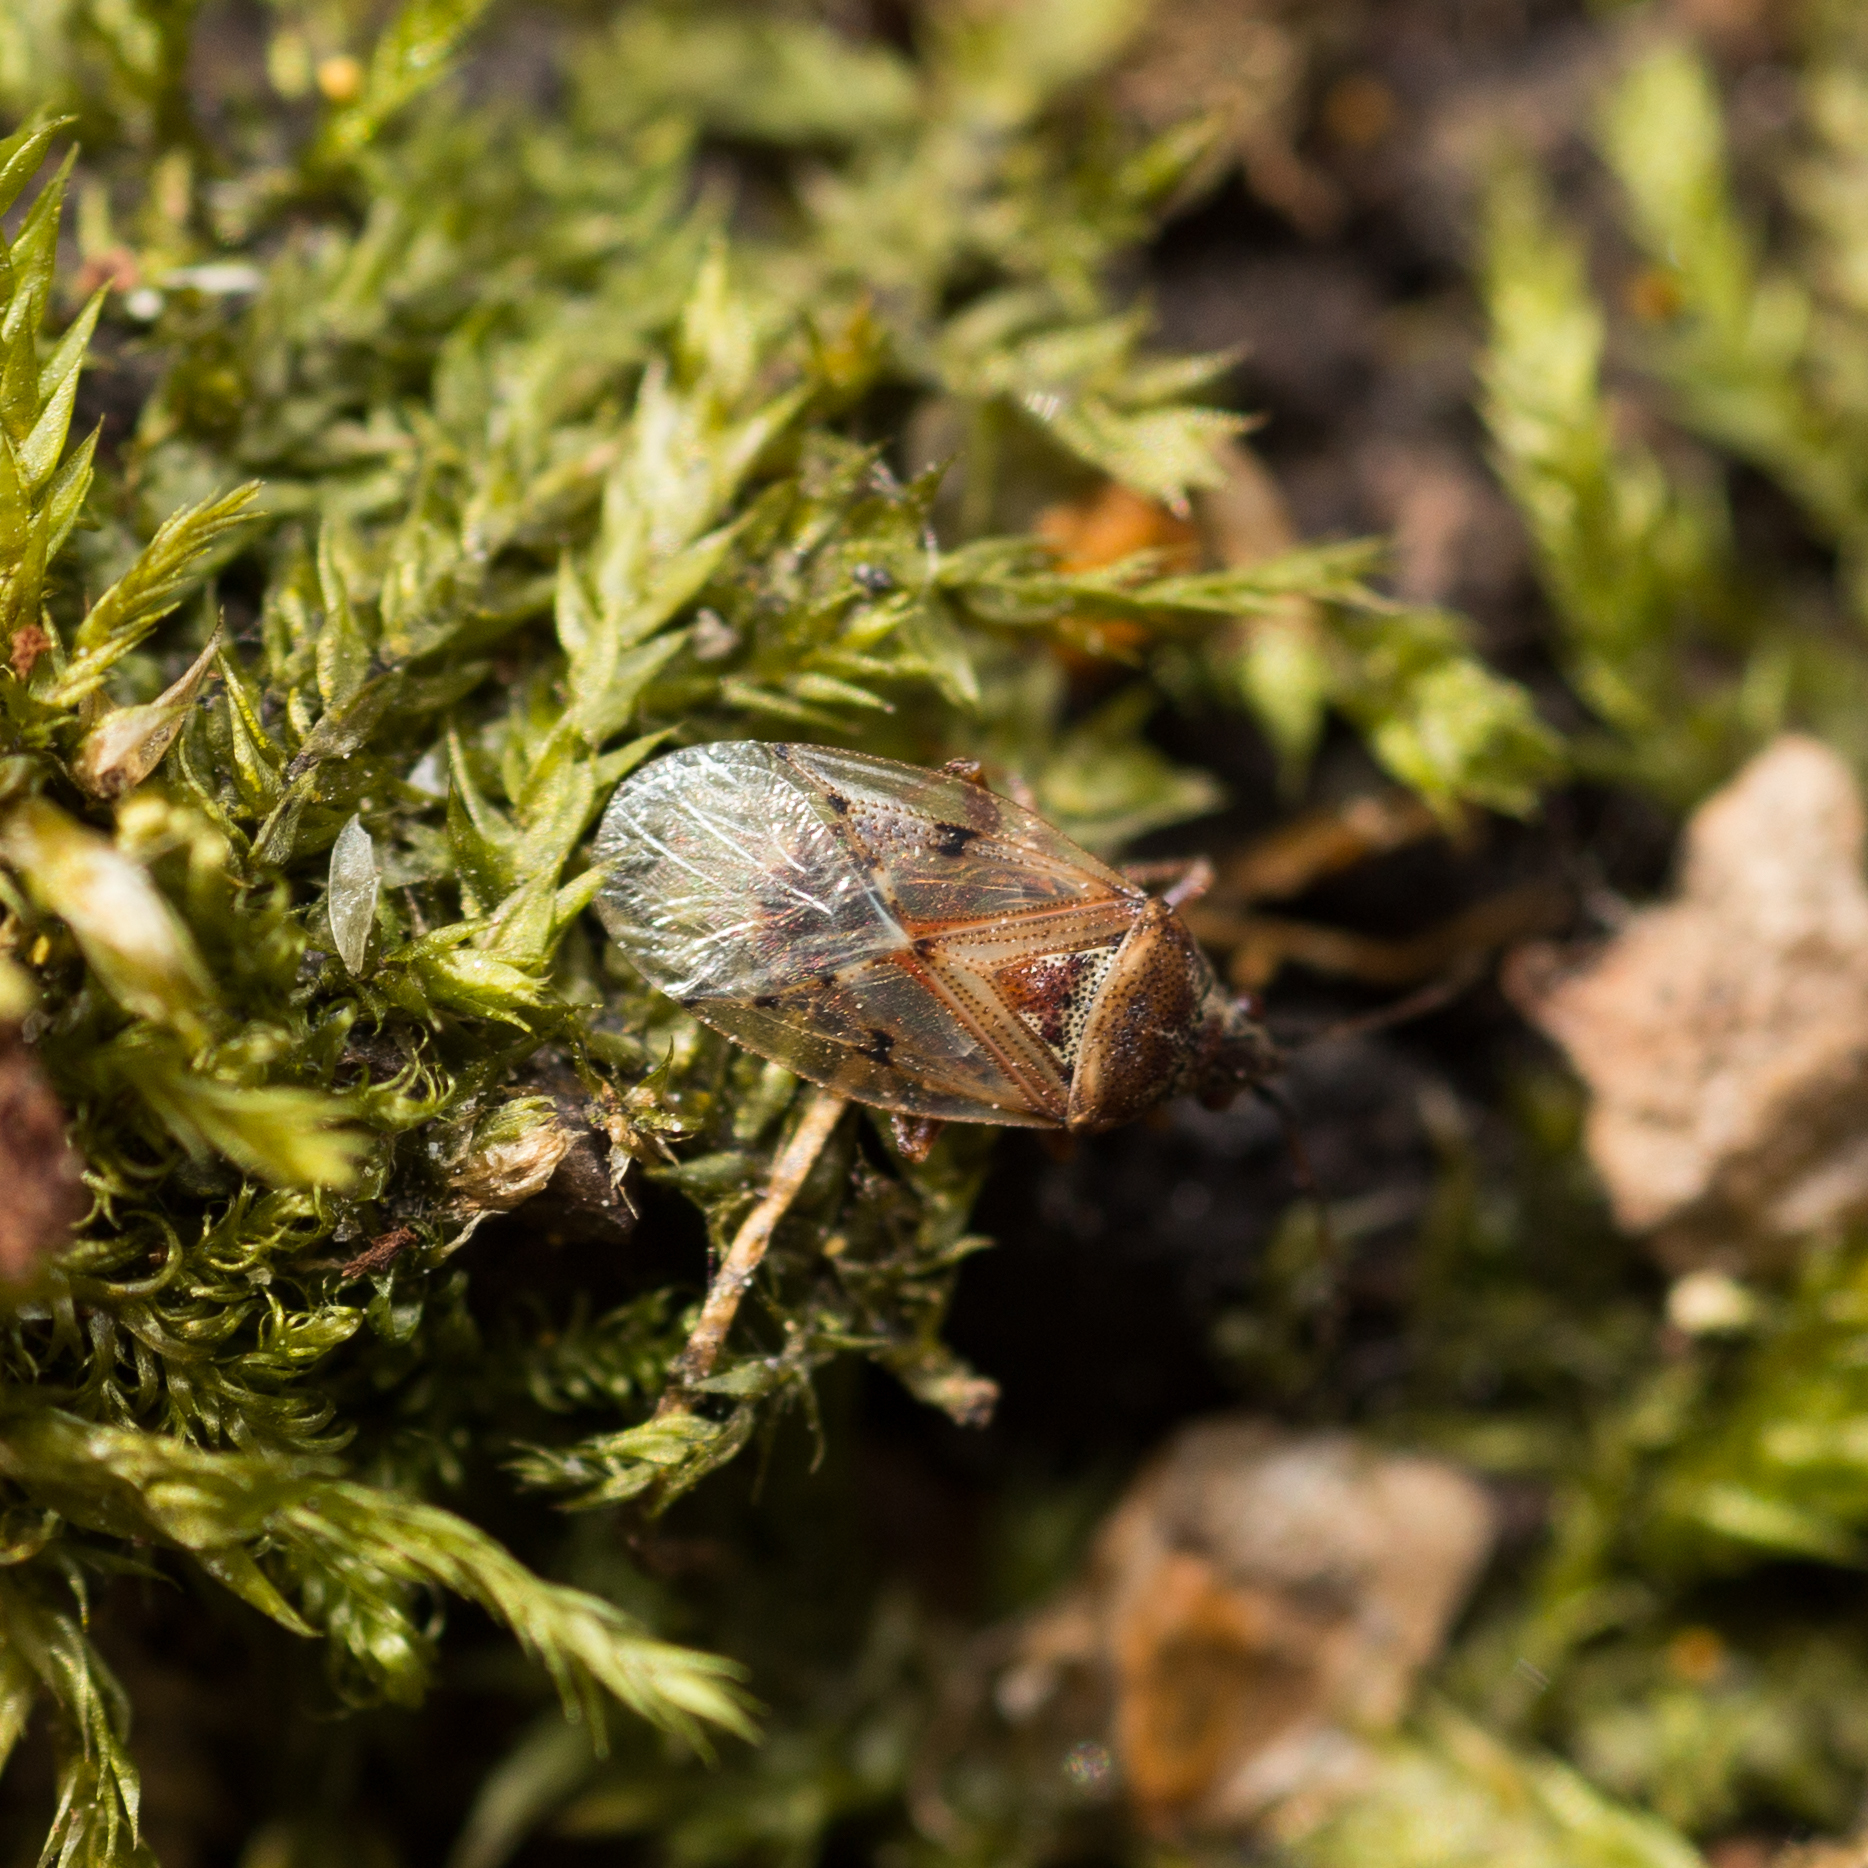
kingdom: Animalia
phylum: Arthropoda
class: Insecta
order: Hemiptera
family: Lygaeidae
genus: Kleidocerys
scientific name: Kleidocerys resedae
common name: Birch catkin bug
